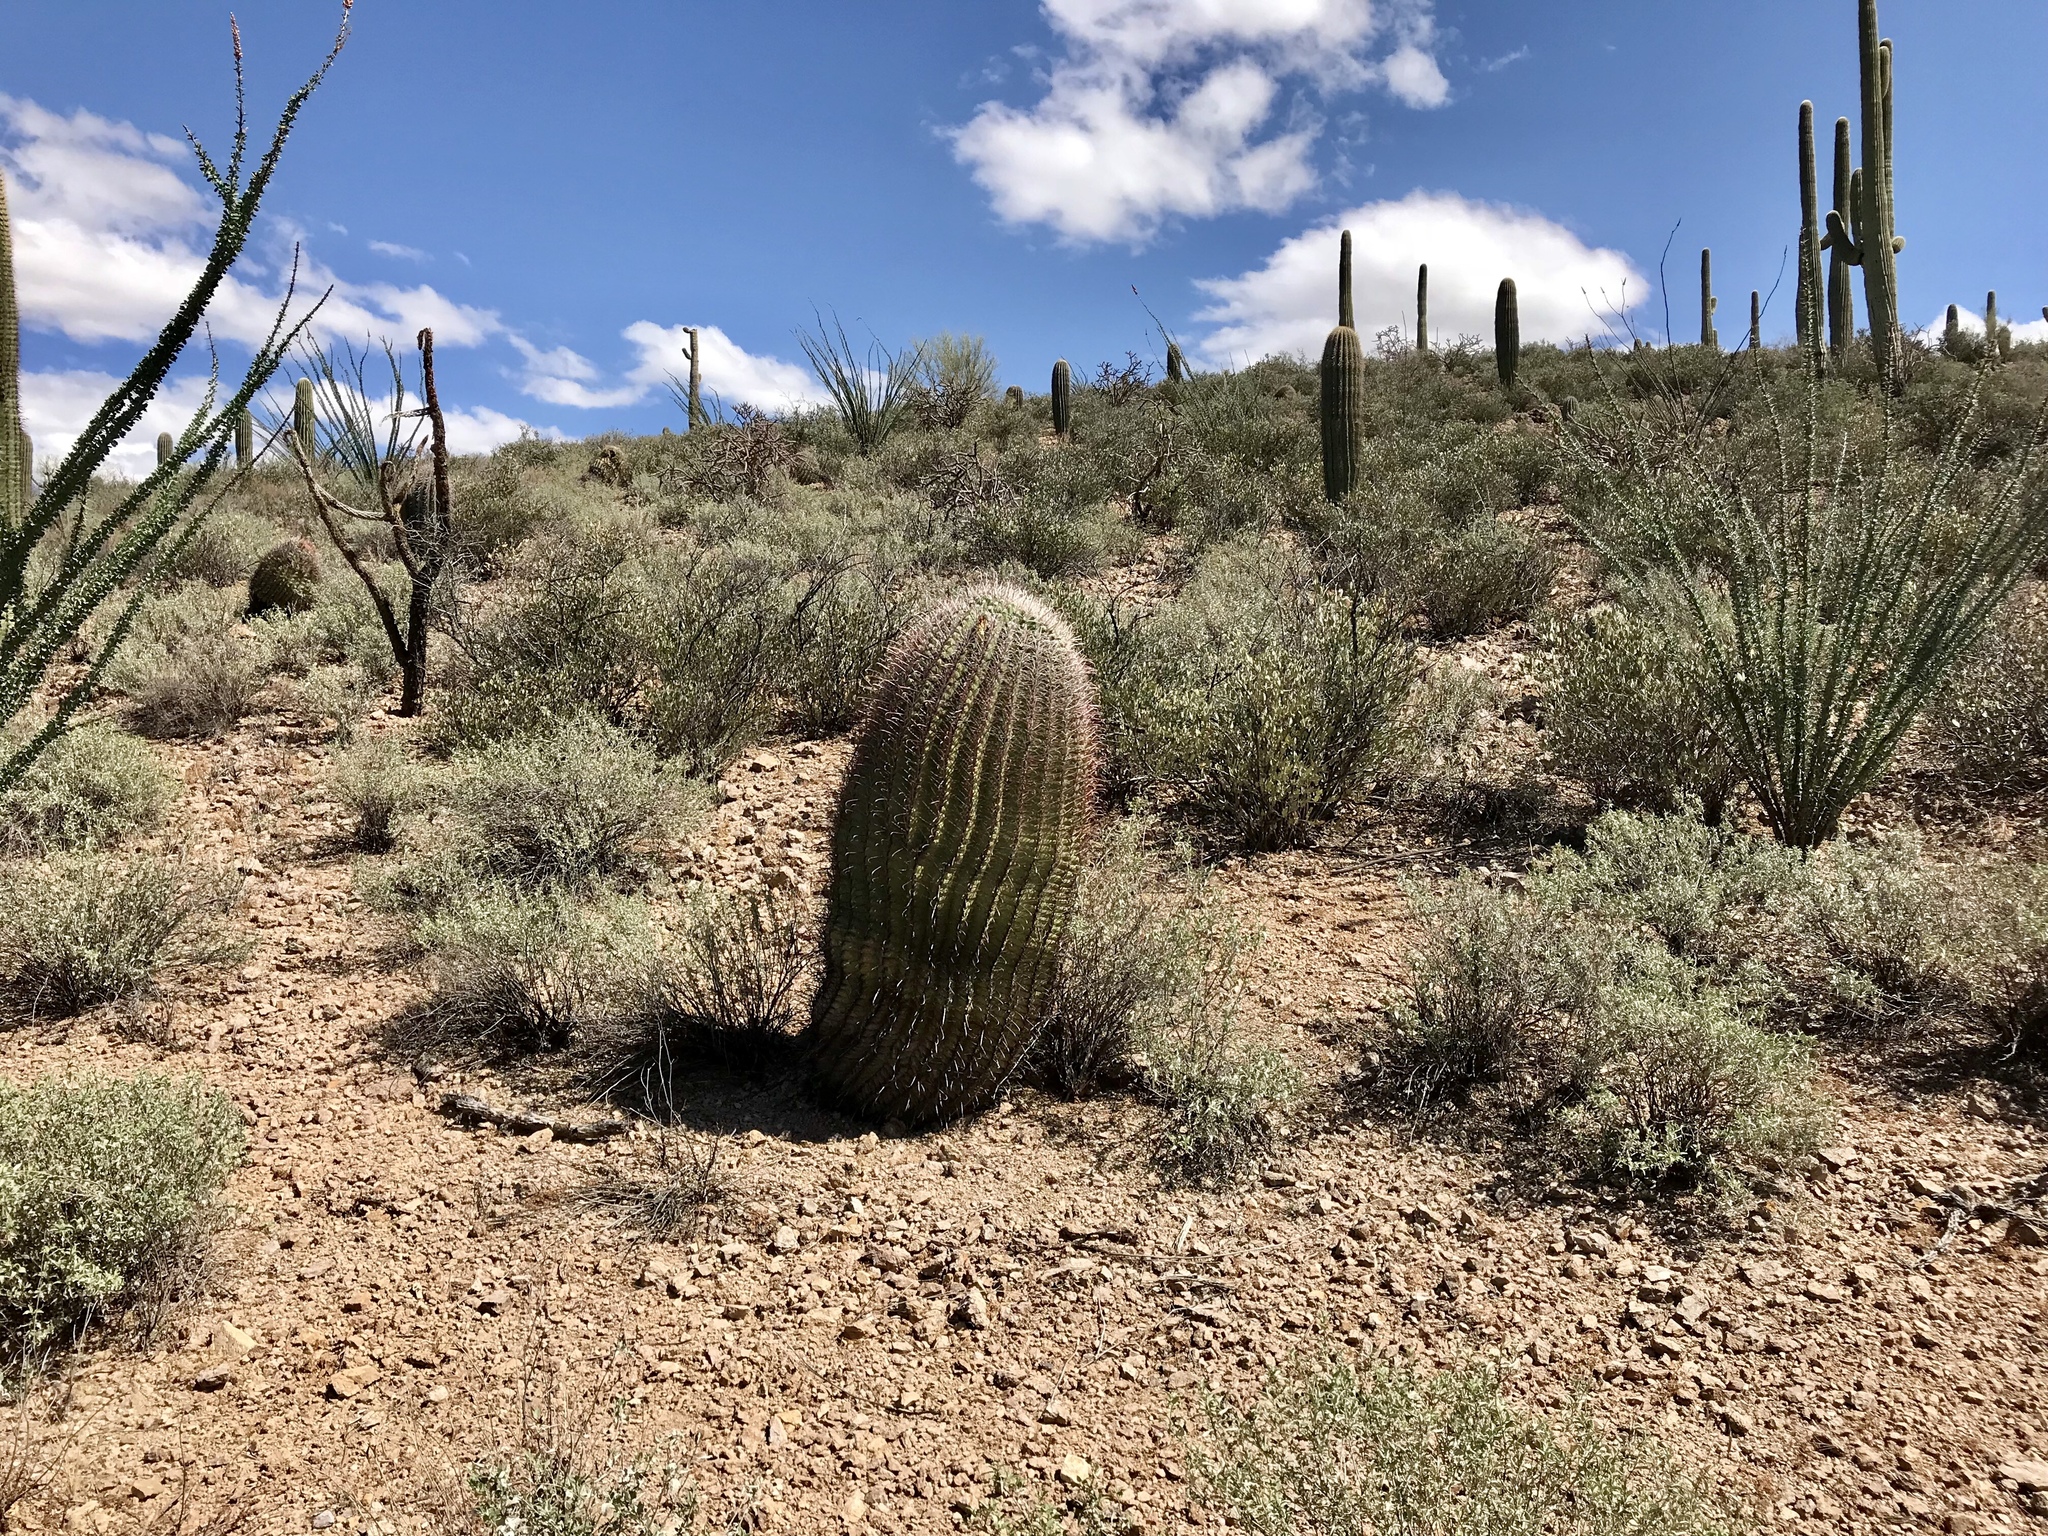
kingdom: Plantae
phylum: Tracheophyta
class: Magnoliopsida
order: Caryophyllales
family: Cactaceae
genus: Ferocactus
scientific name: Ferocactus wislizeni
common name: Candy barrel cactus
